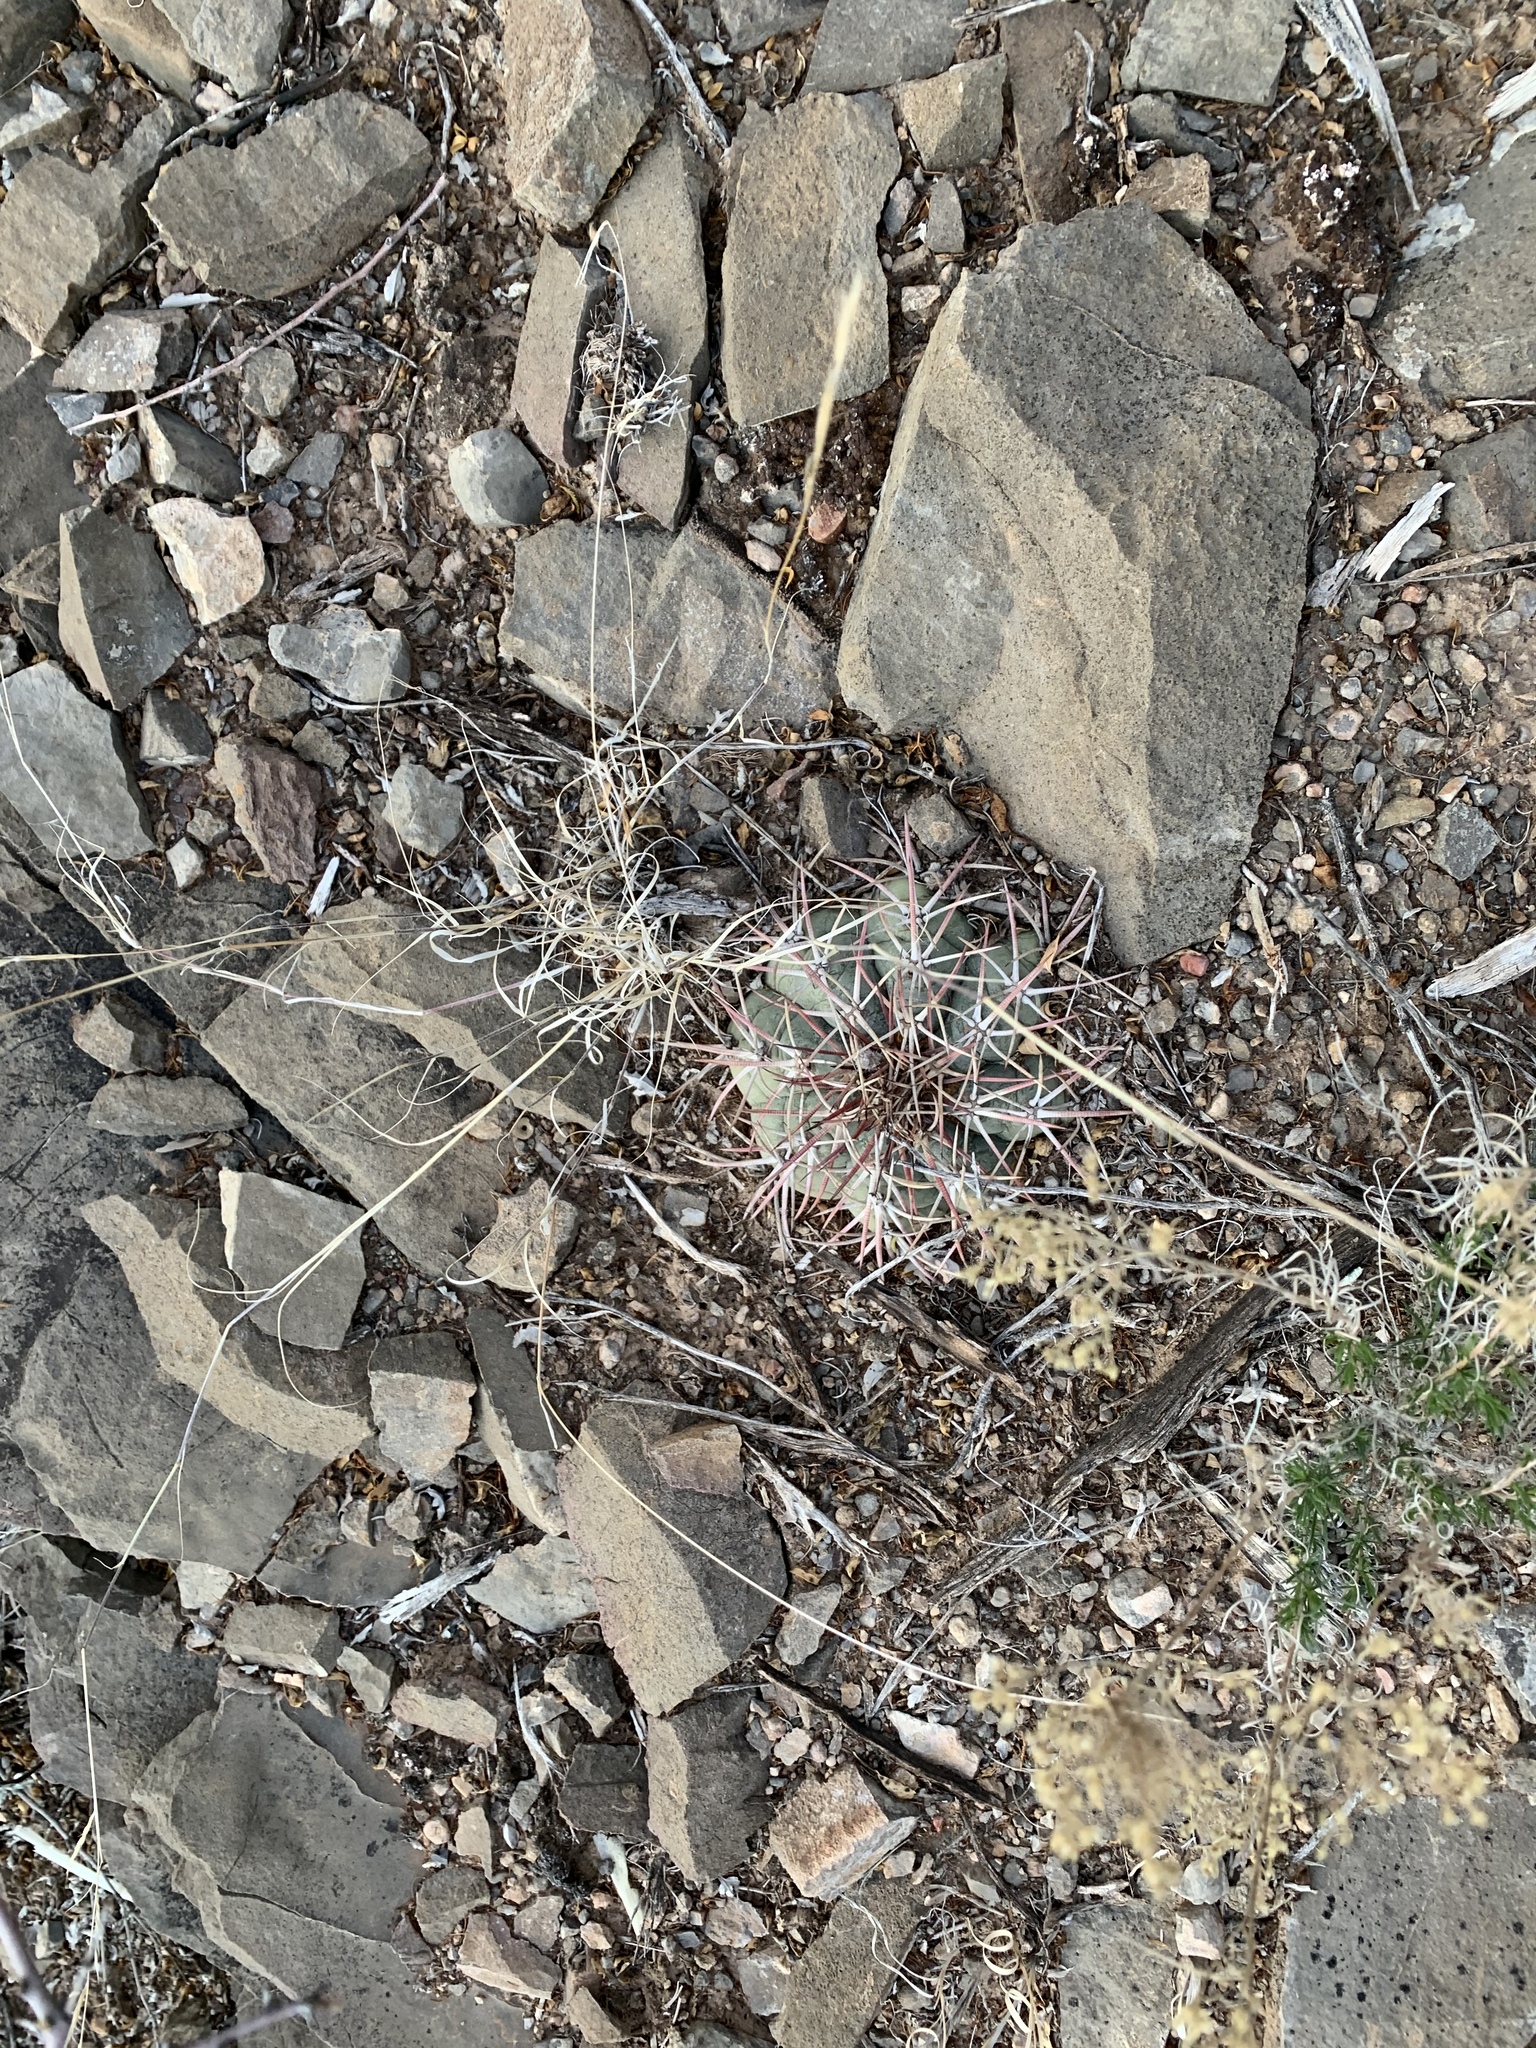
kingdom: Plantae
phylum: Tracheophyta
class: Magnoliopsida
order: Caryophyllales
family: Cactaceae
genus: Echinocactus
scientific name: Echinocactus horizonthalonius
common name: Devilshead
